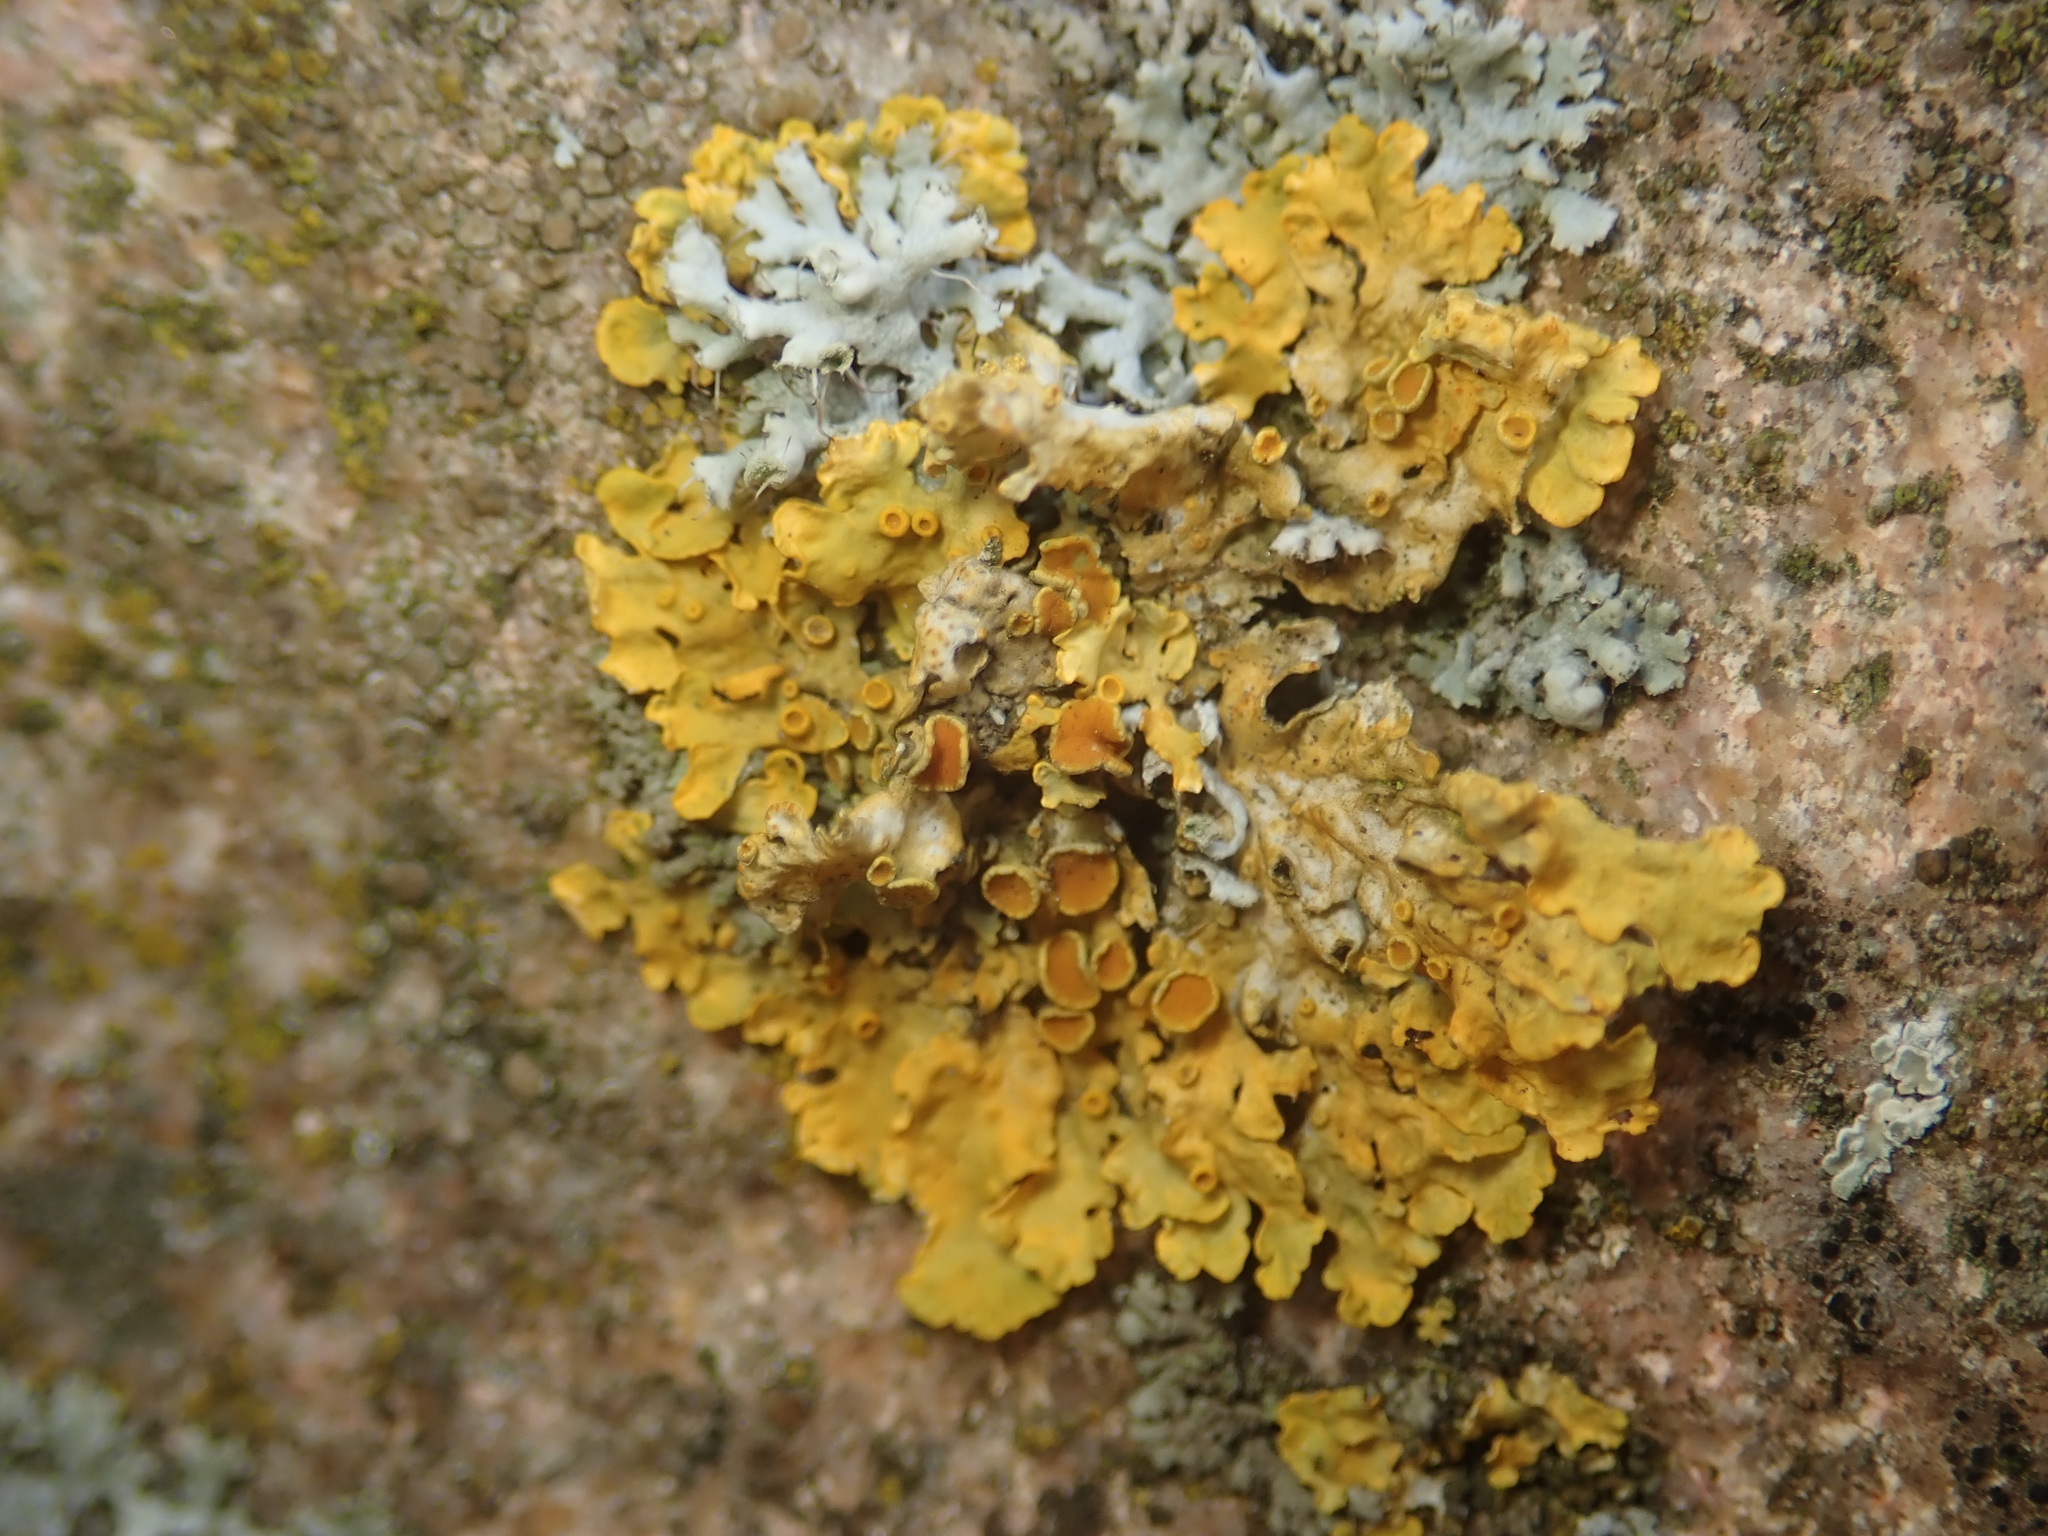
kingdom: Fungi
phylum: Ascomycota
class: Lecanoromycetes
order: Teloschistales
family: Teloschistaceae
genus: Xanthoria
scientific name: Xanthoria parietina
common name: Common orange lichen
